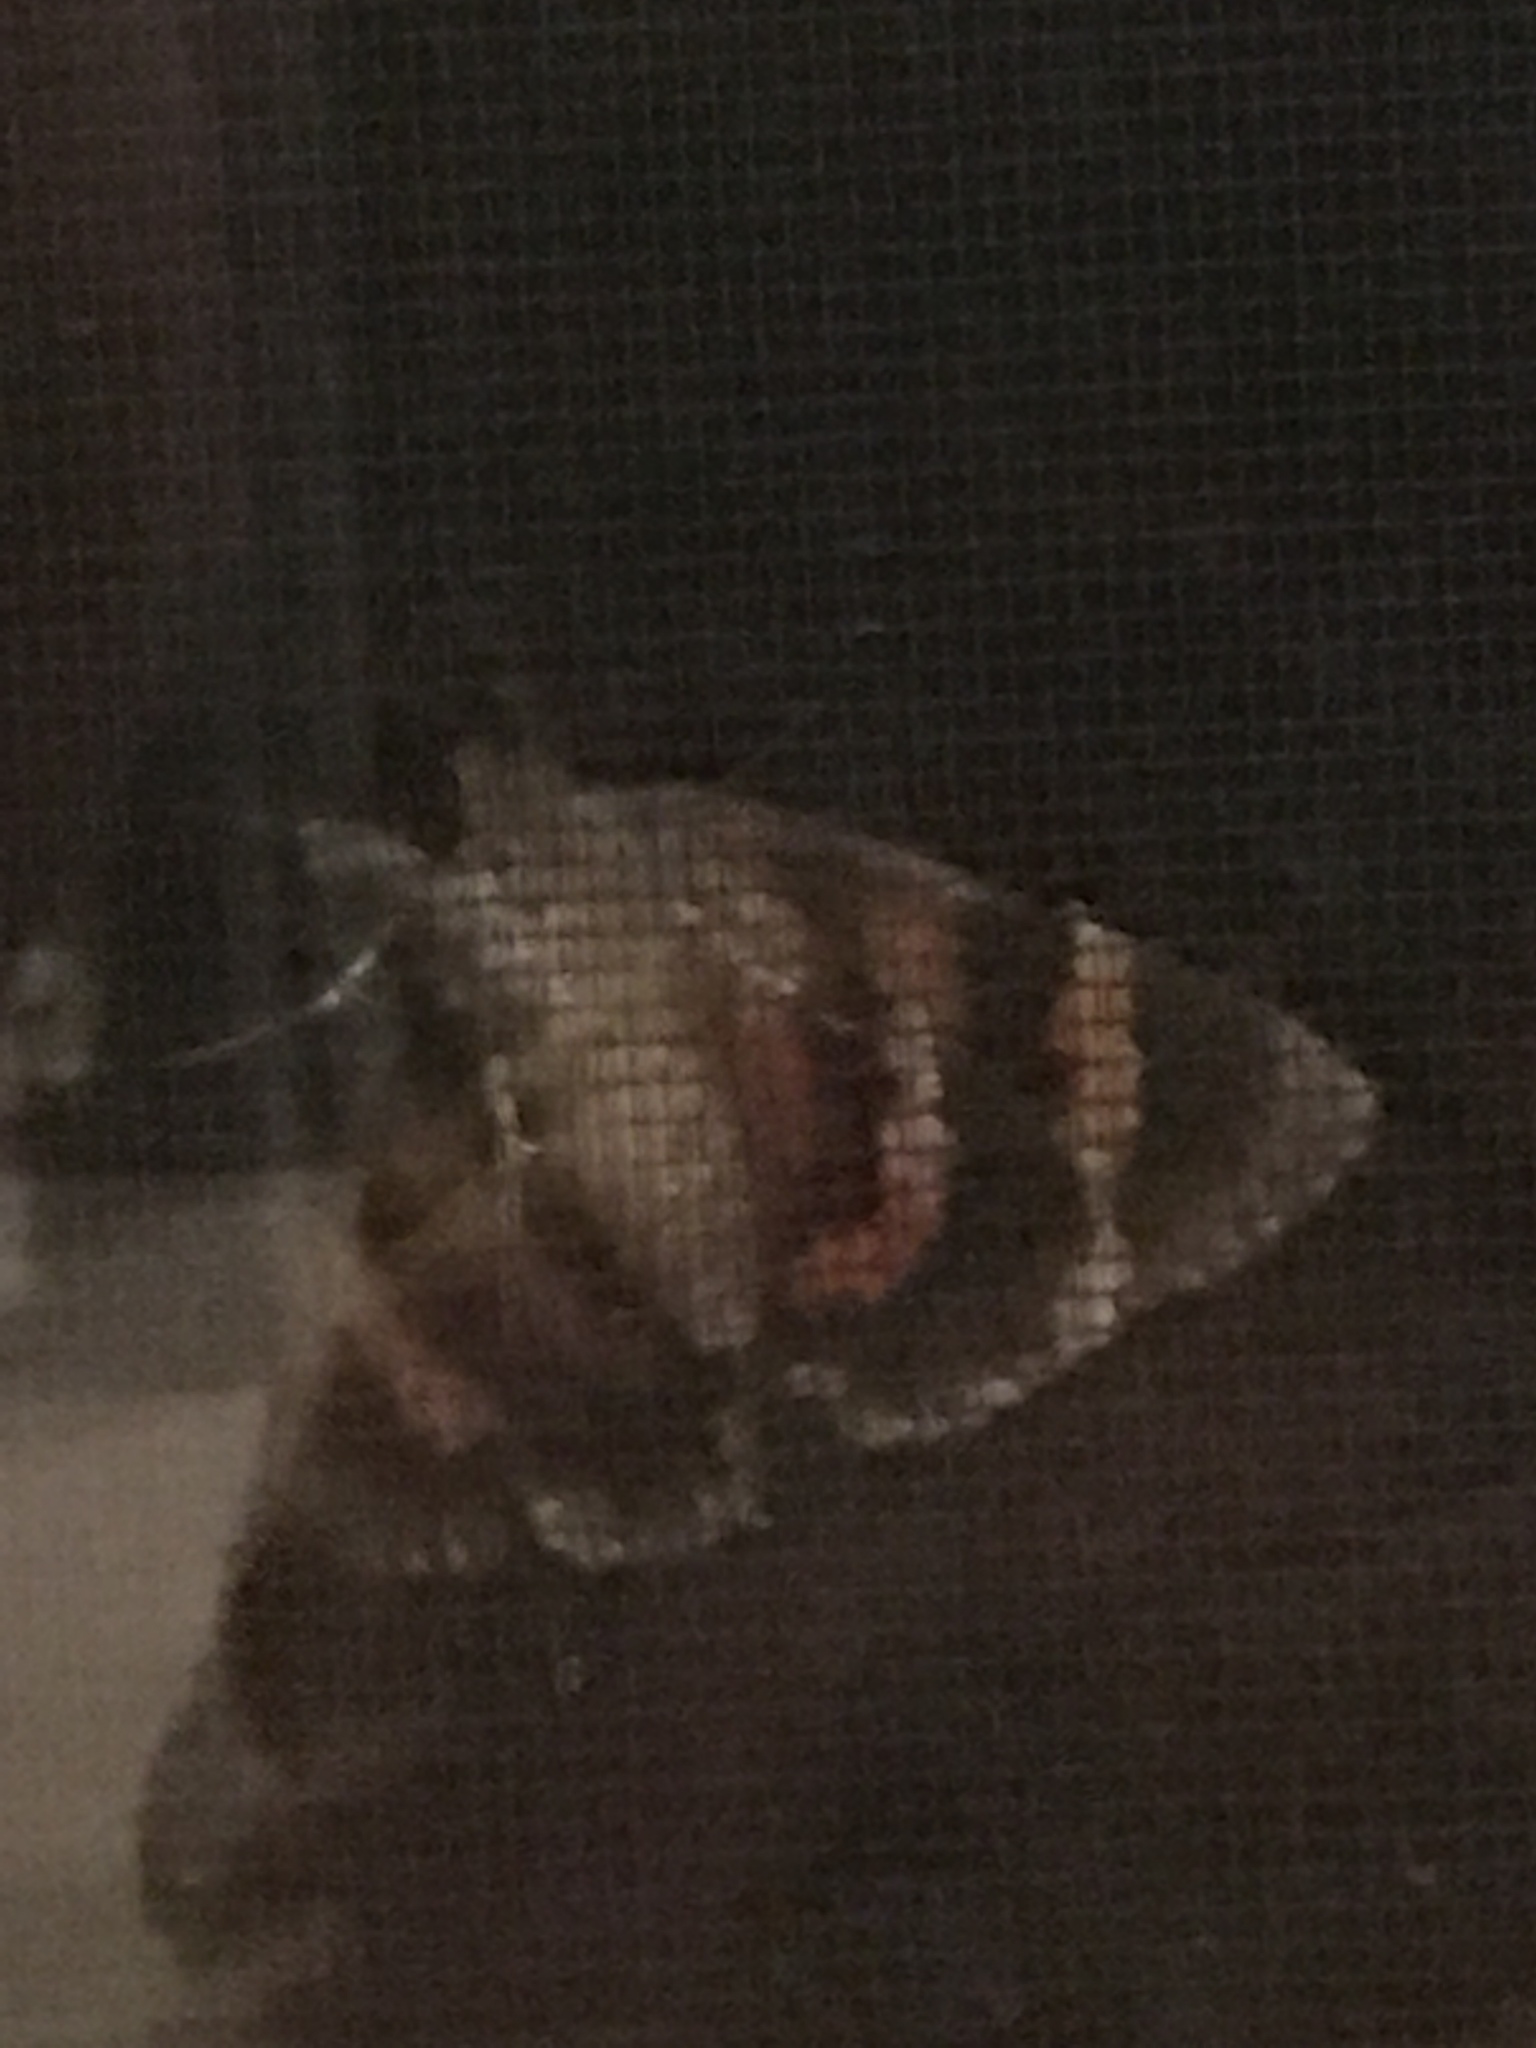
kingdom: Animalia
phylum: Arthropoda
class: Insecta
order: Lepidoptera
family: Erebidae
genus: Catocala
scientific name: Catocala ilia
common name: Ilia underwing
